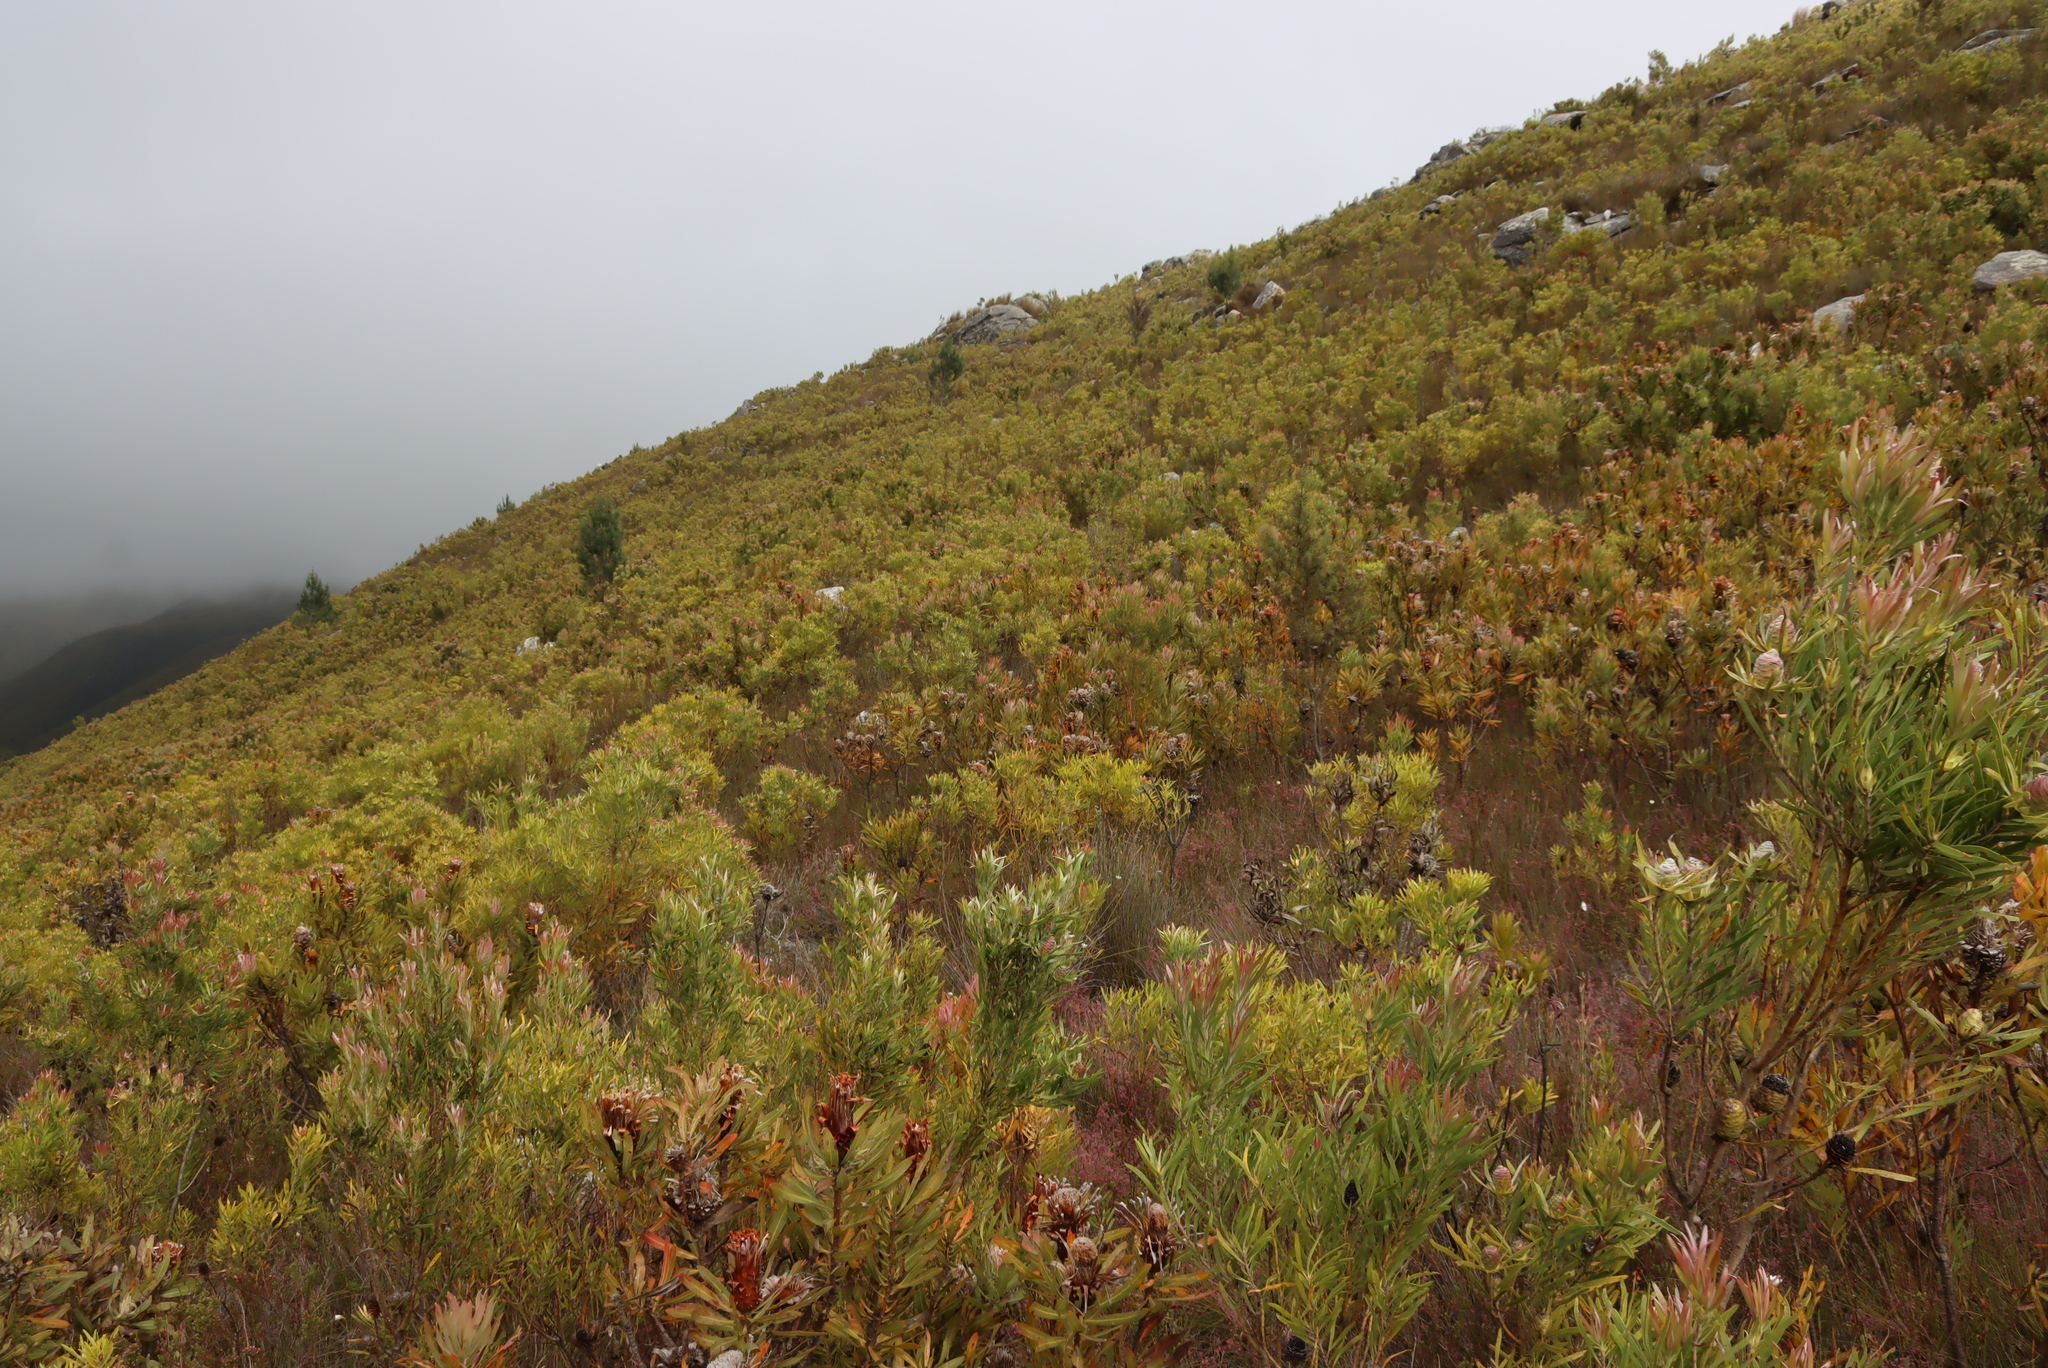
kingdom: Plantae
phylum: Tracheophyta
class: Magnoliopsida
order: Proteales
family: Proteaceae
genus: Hakea
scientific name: Hakea sericea
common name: Needle bush
